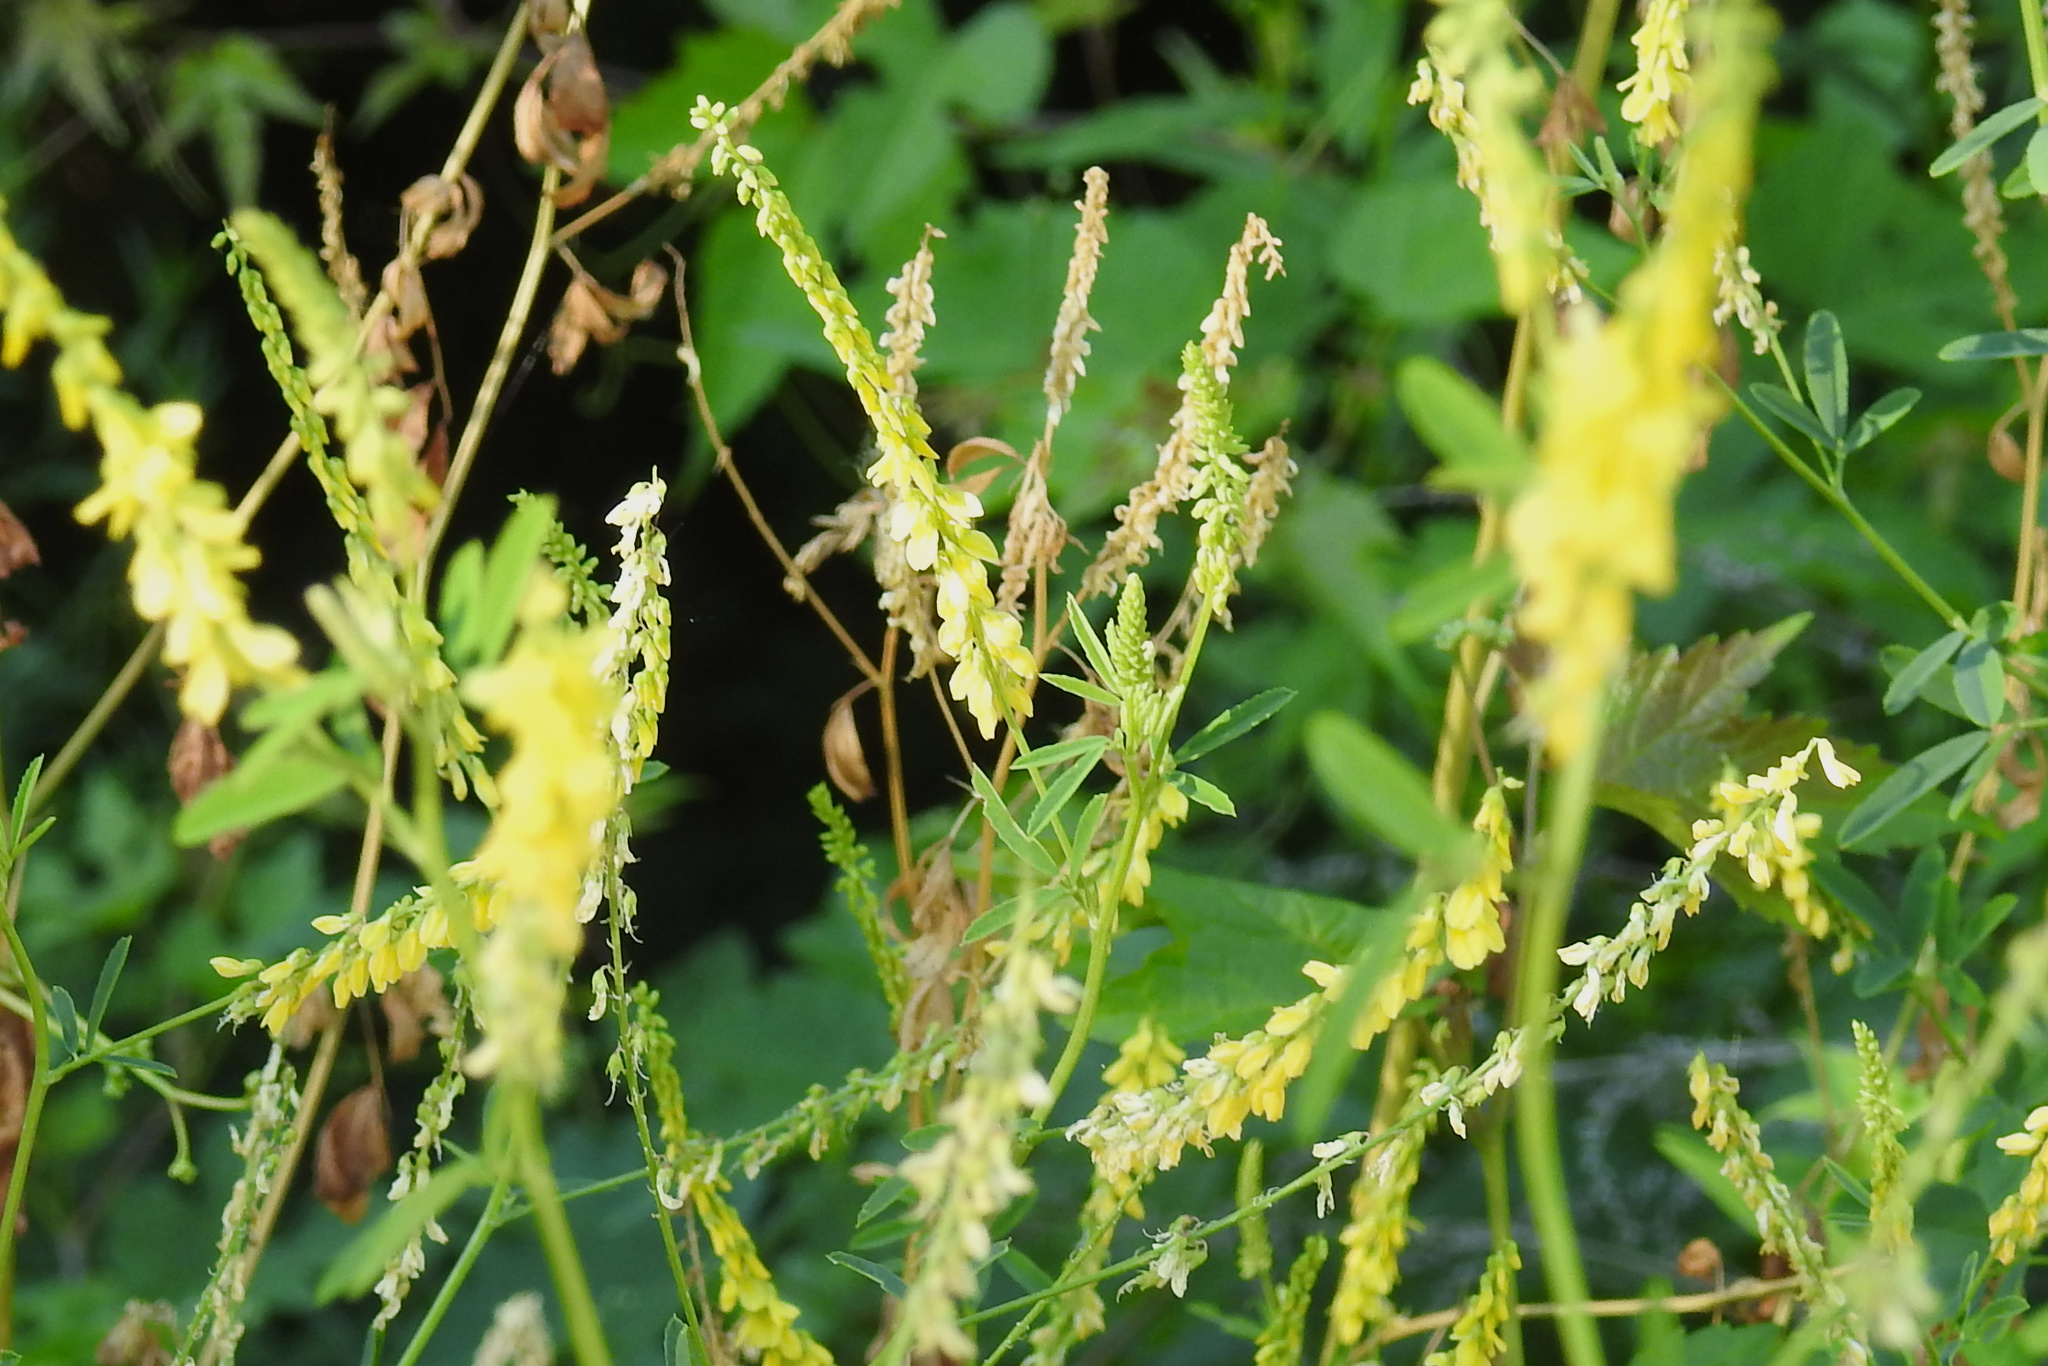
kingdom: Plantae
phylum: Tracheophyta
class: Magnoliopsida
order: Fabales
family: Fabaceae
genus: Melilotus
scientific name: Melilotus officinalis
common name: Sweetclover
